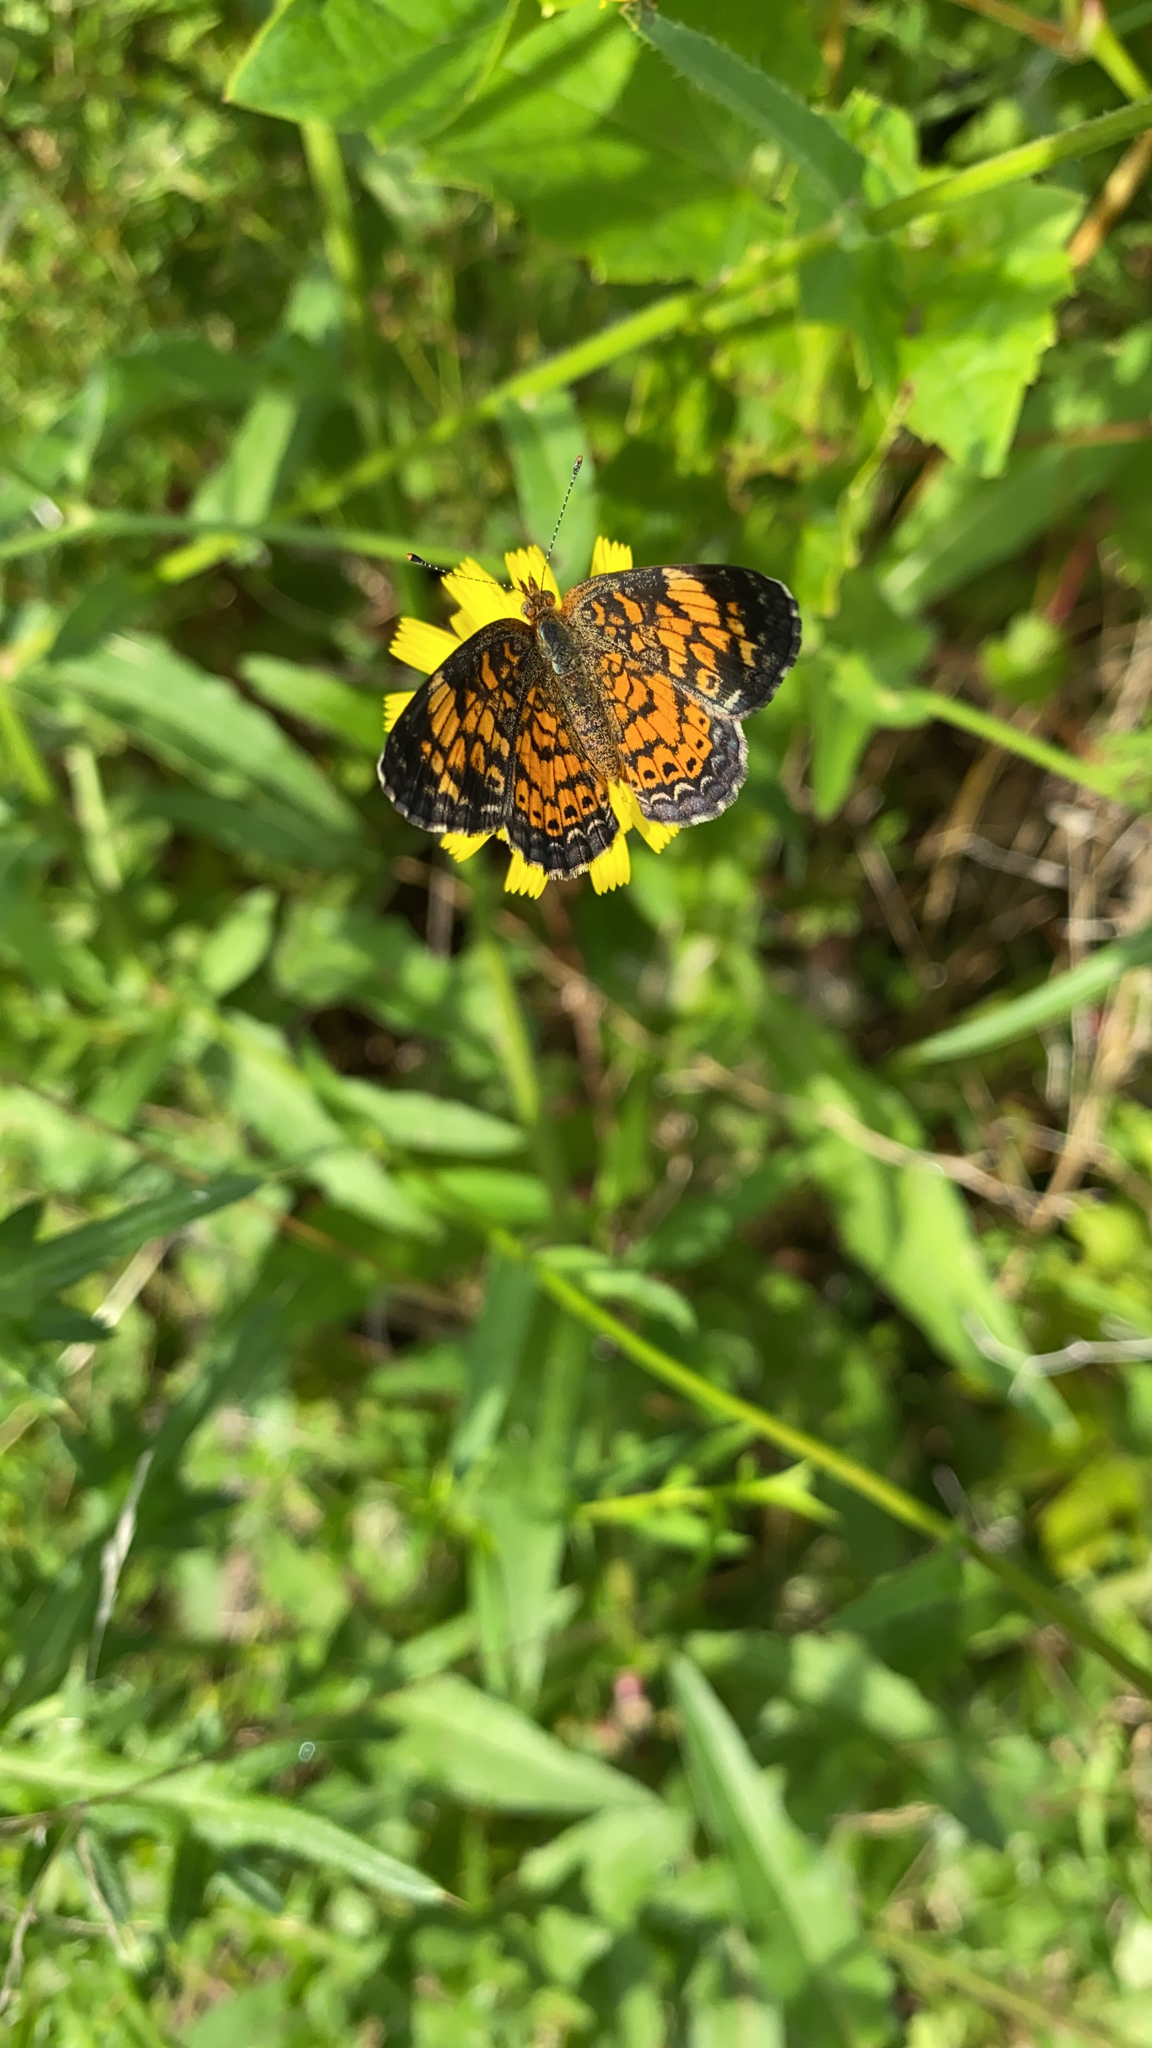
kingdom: Animalia
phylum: Arthropoda
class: Insecta
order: Lepidoptera
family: Nymphalidae
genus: Phyciodes
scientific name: Phyciodes tharos
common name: Pearl crescent
